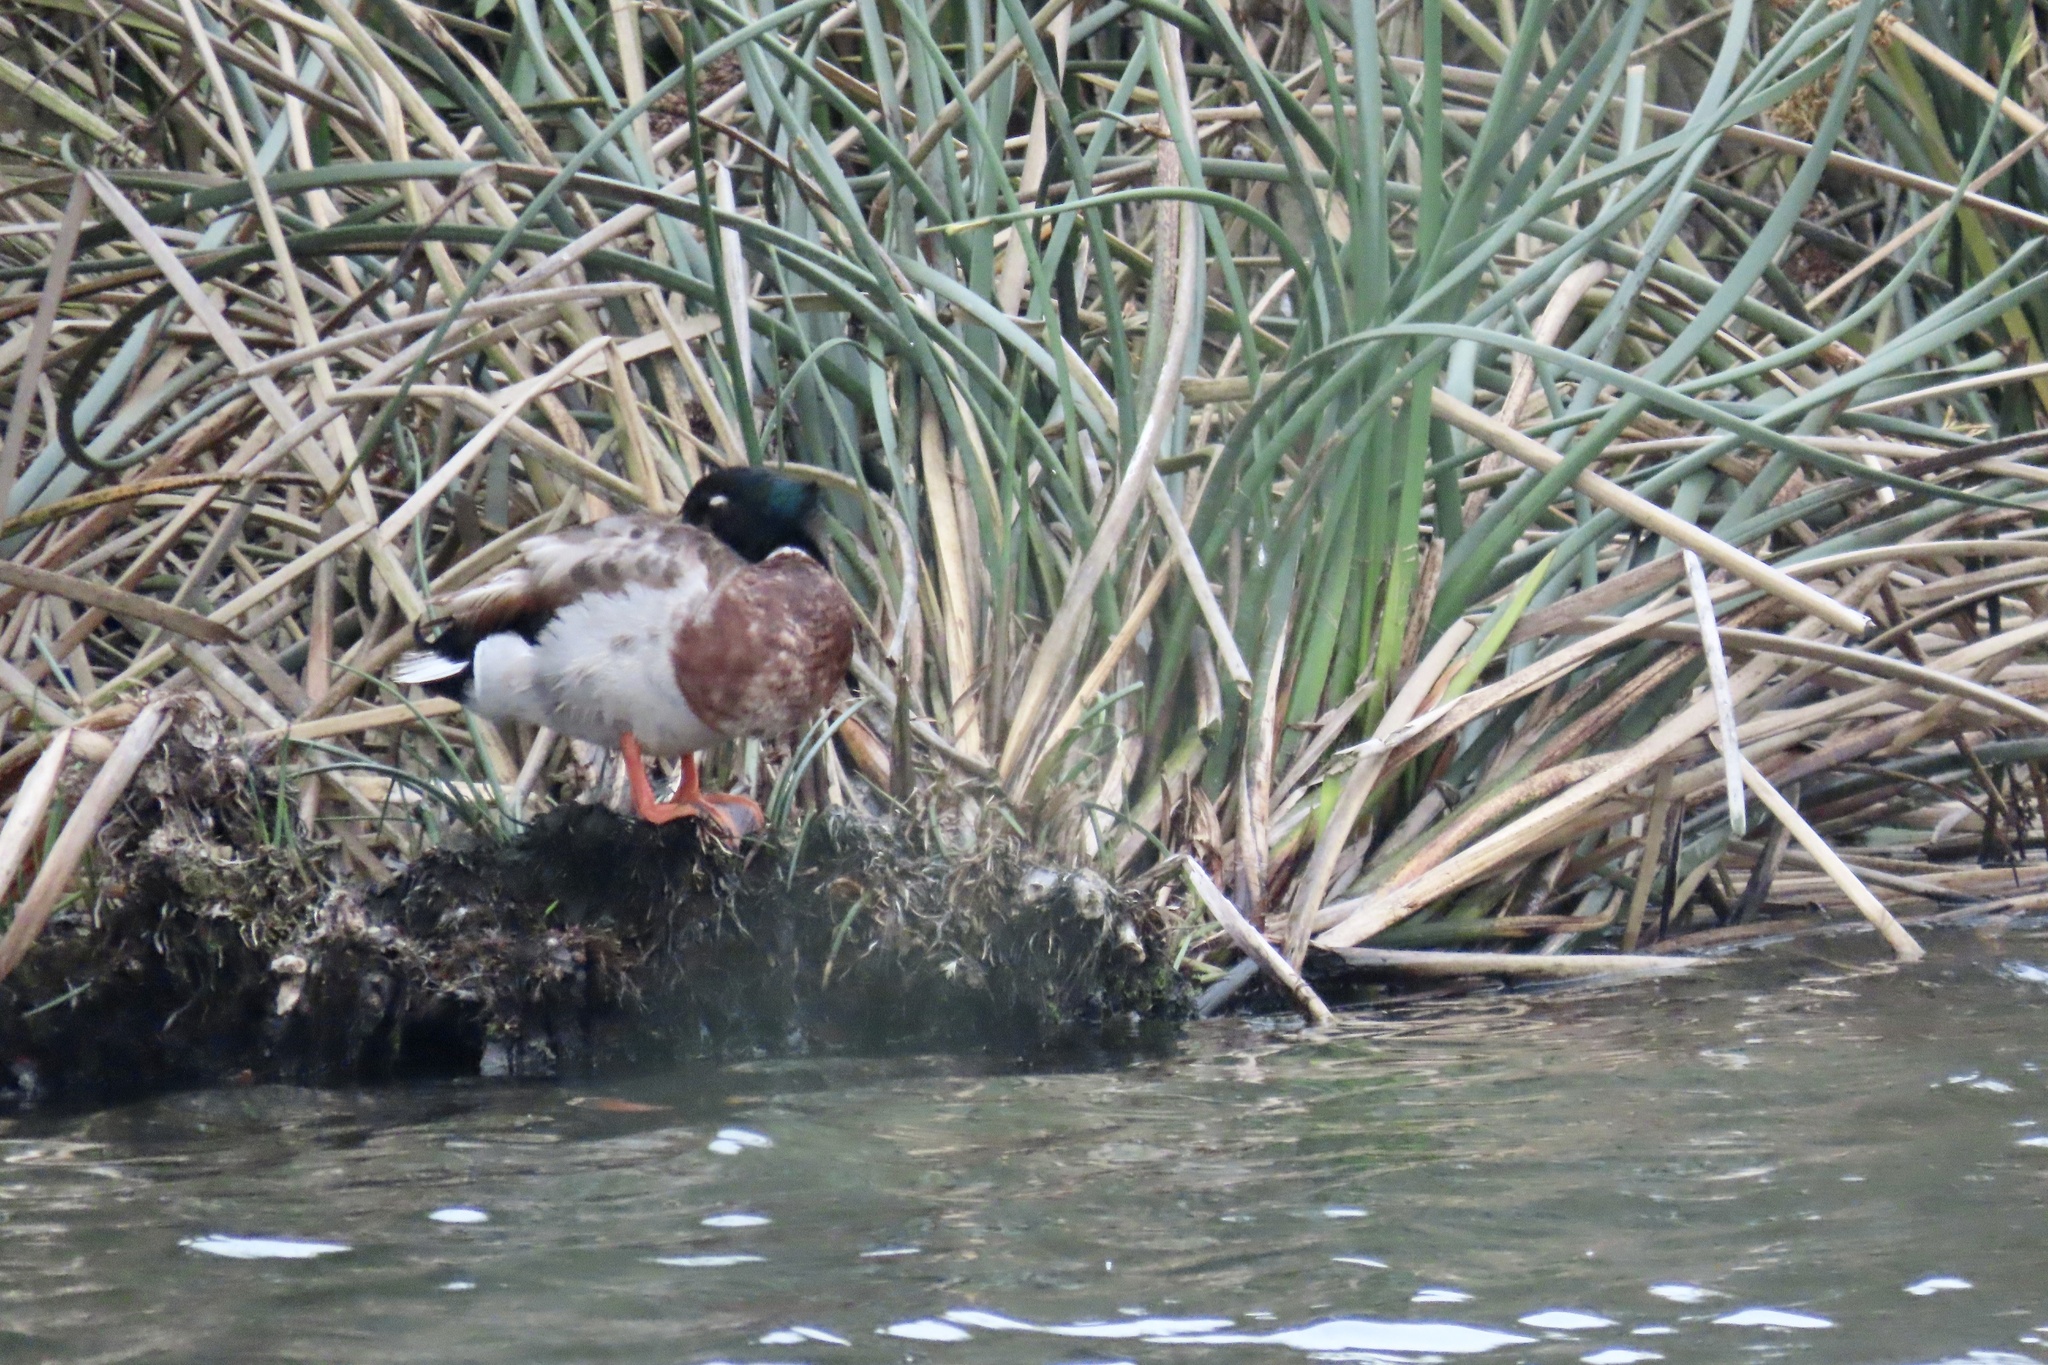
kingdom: Animalia
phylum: Chordata
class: Aves
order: Anseriformes
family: Anatidae
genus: Anas
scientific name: Anas platyrhynchos
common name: Mallard
